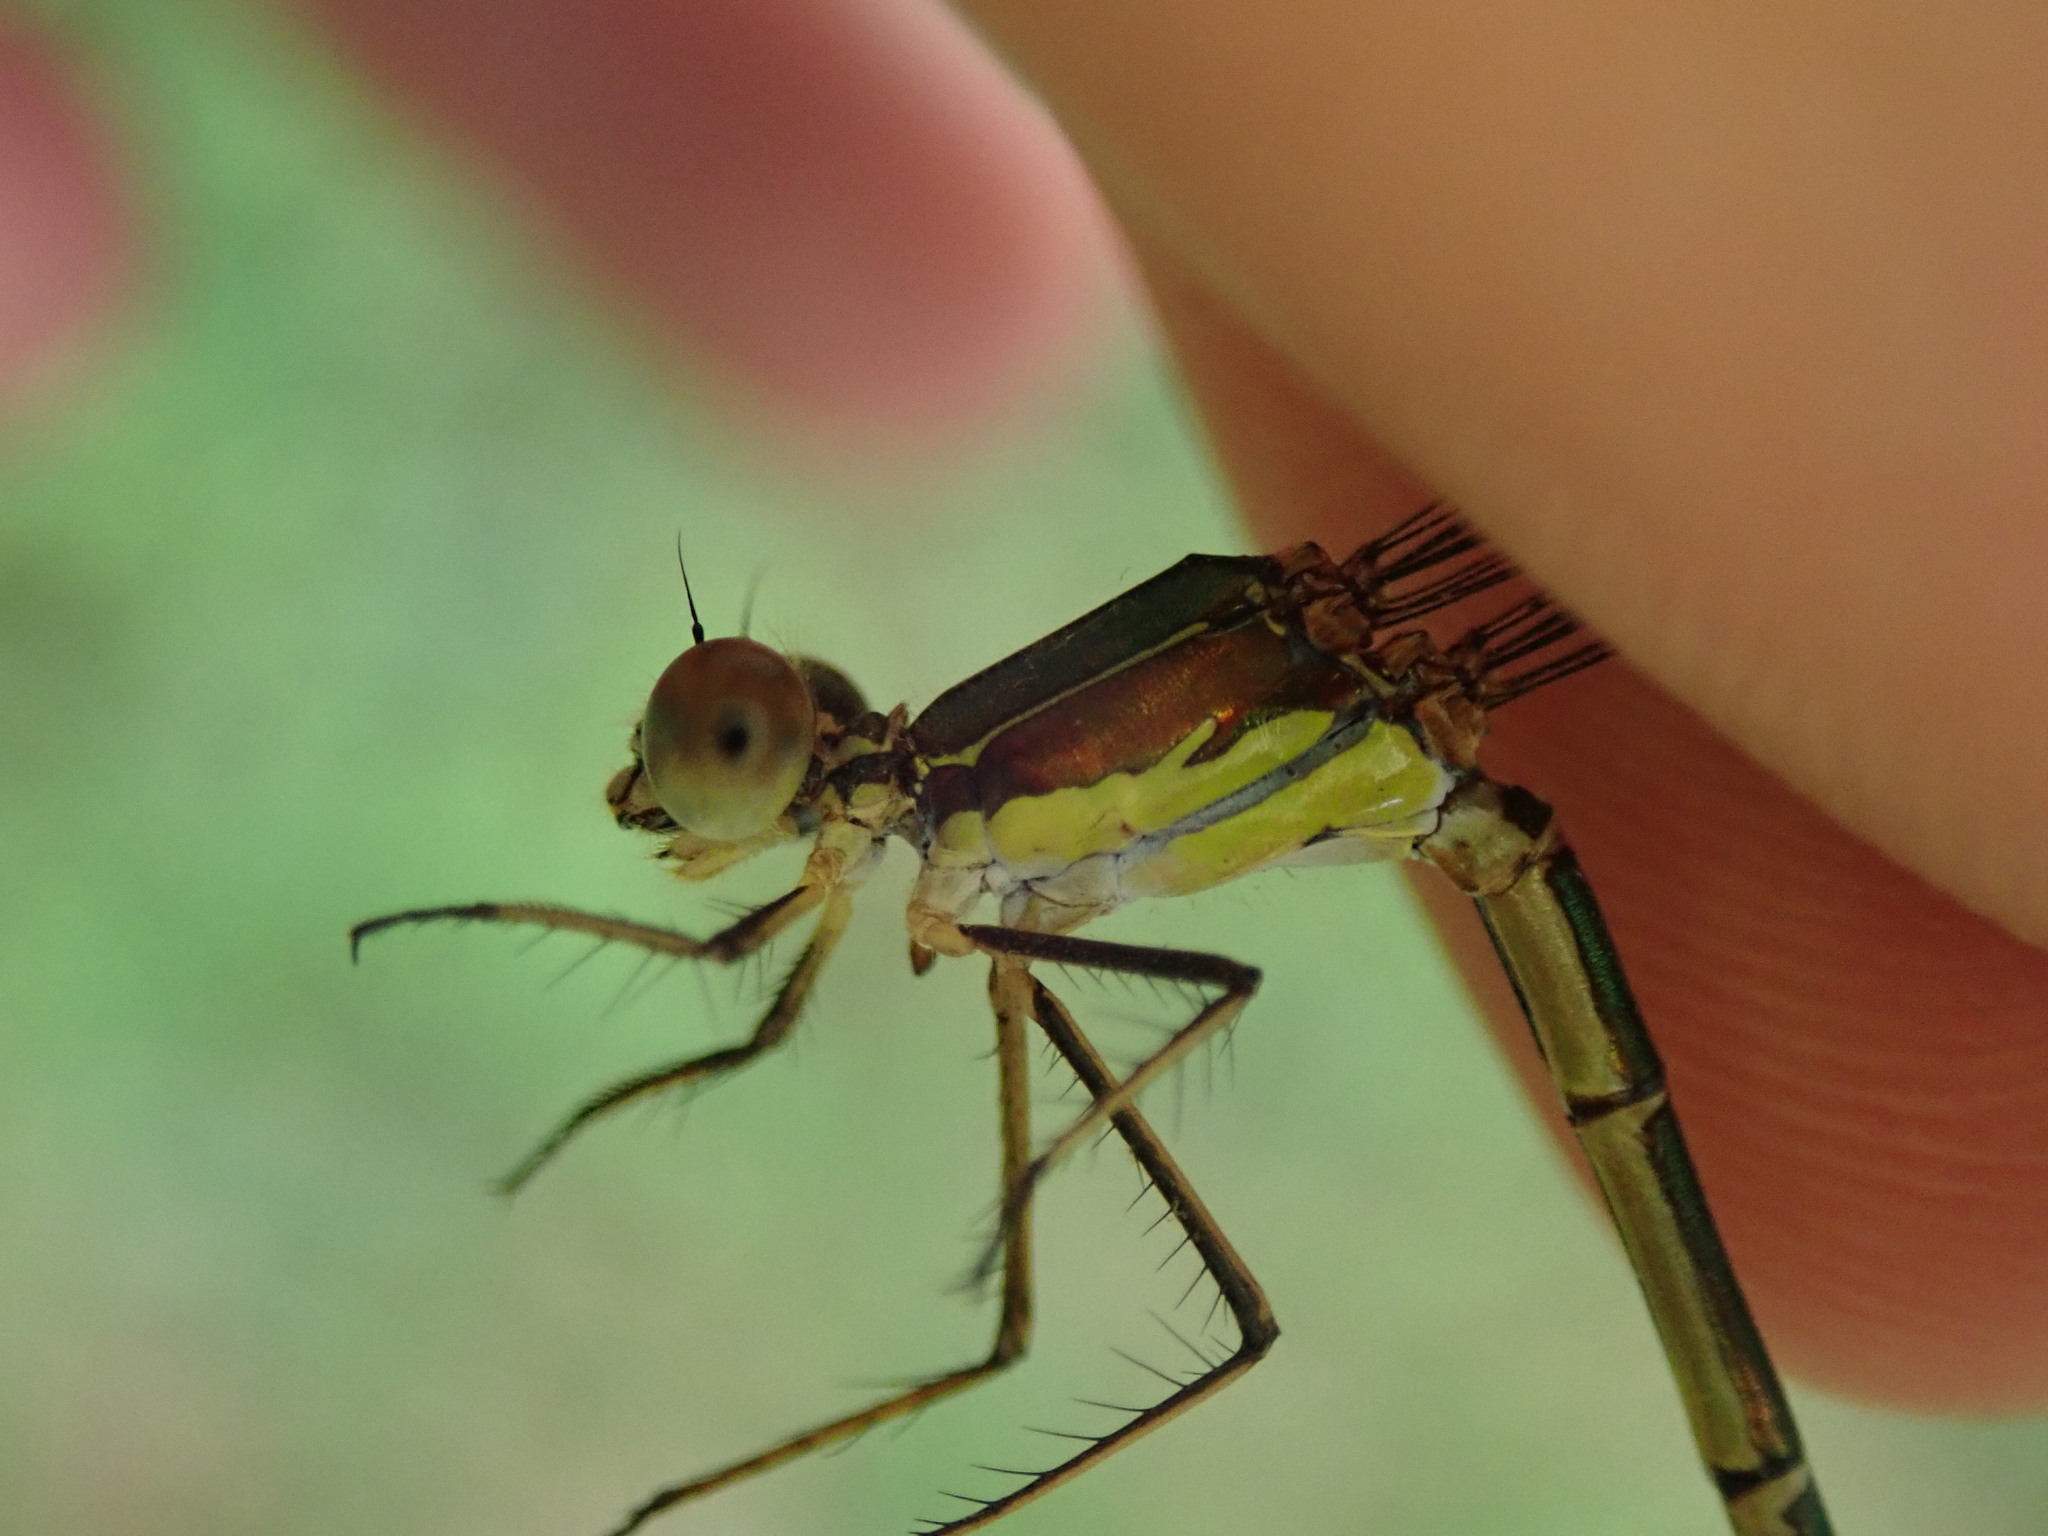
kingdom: Animalia
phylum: Arthropoda
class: Insecta
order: Odonata
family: Lestidae
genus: Chalcolestes
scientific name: Chalcolestes viridis
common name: Green emerald damselfly
